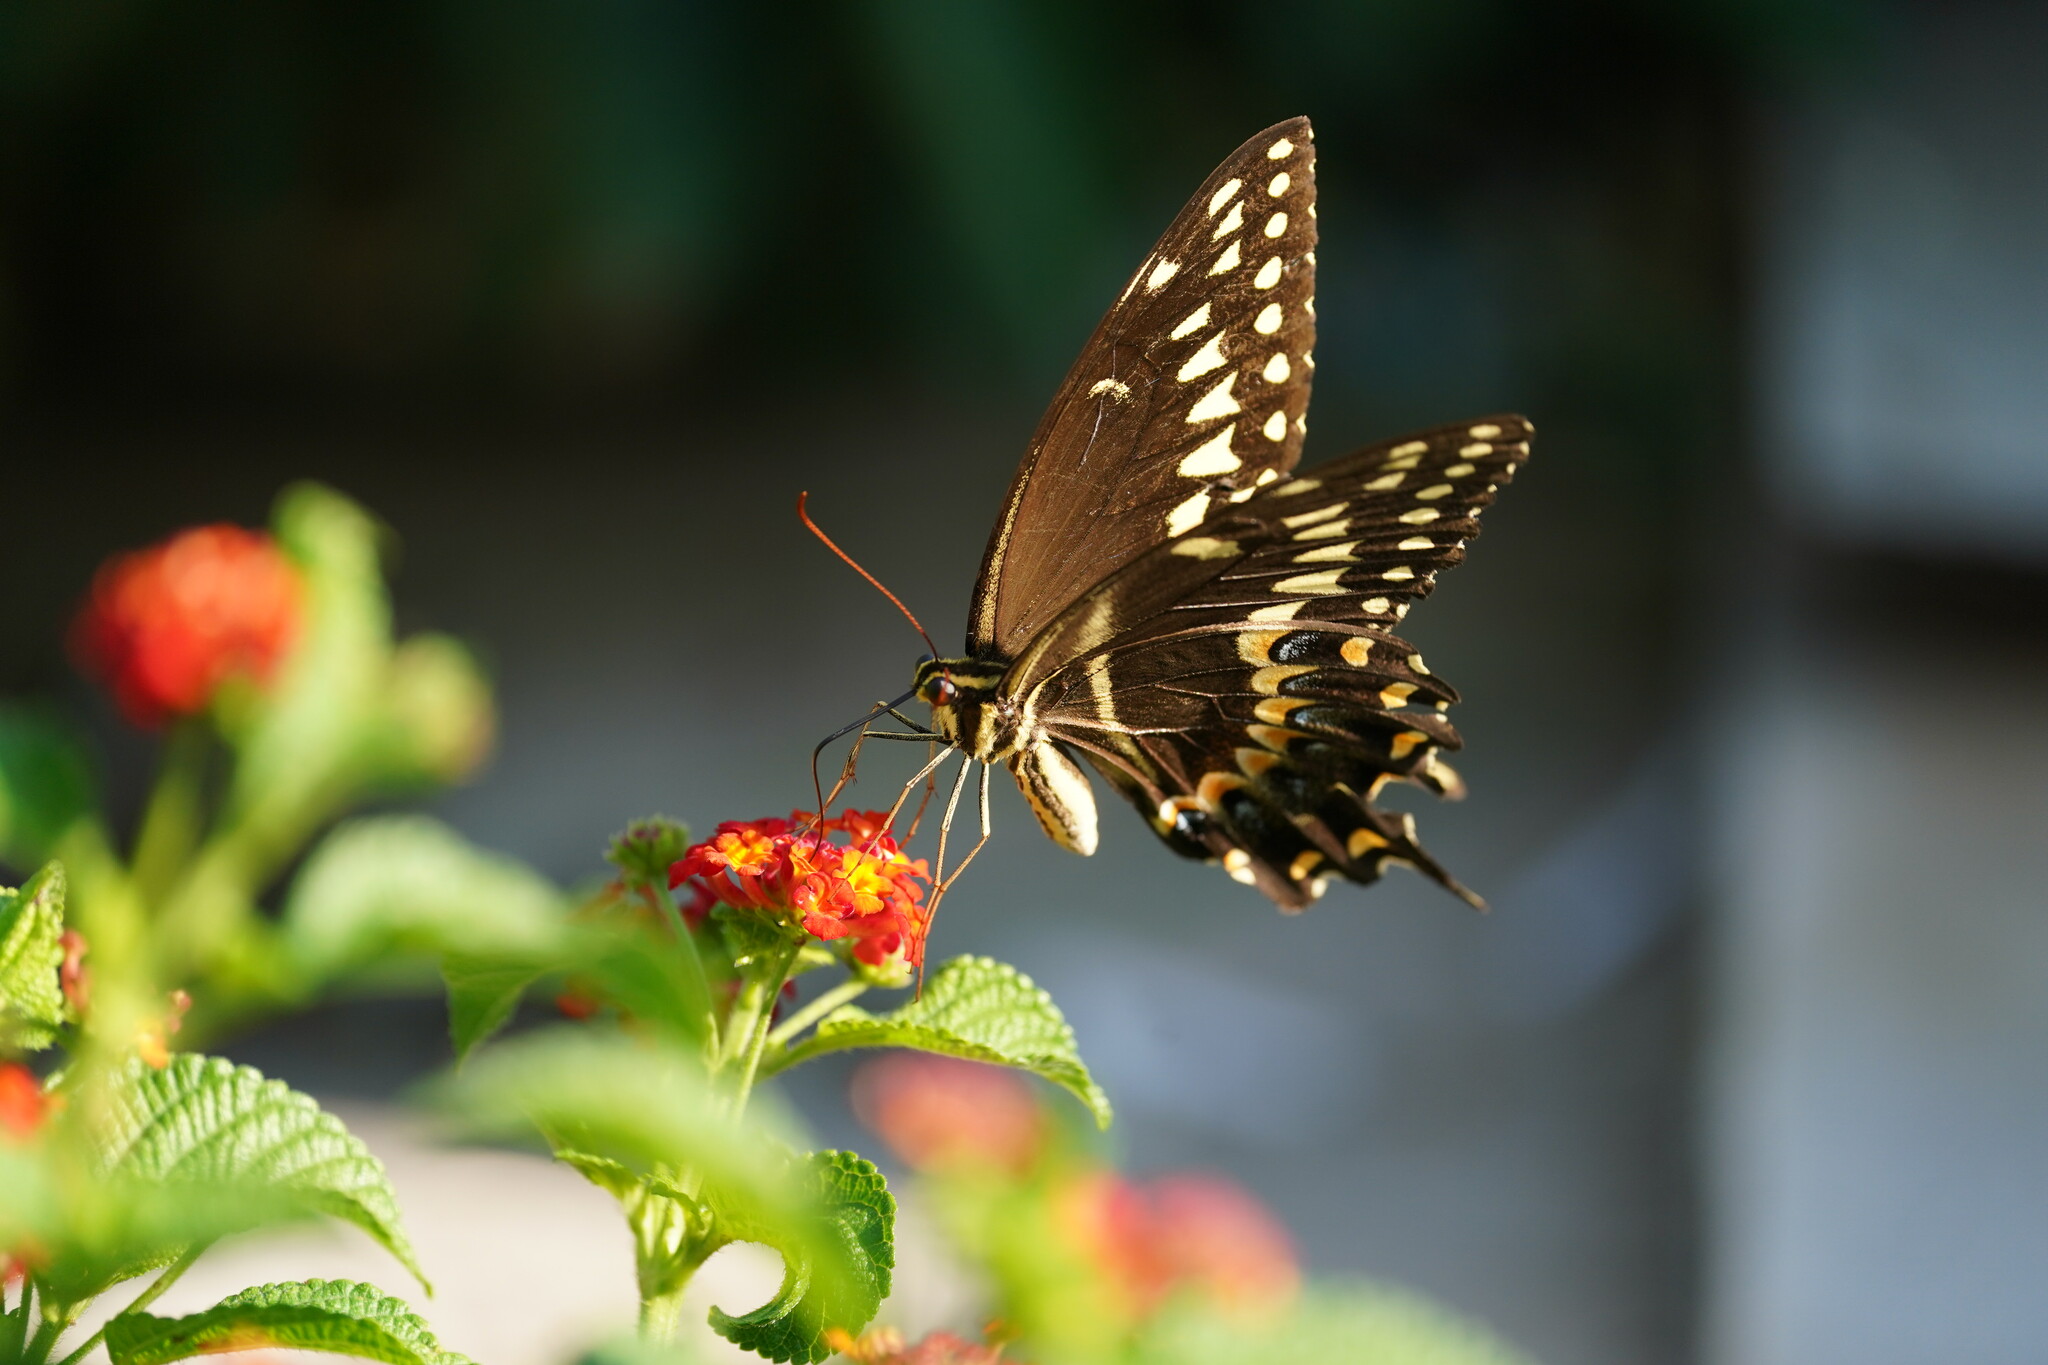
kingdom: Animalia
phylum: Arthropoda
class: Insecta
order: Lepidoptera
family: Papilionidae
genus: Papilio
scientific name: Papilio palamedes
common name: Palamedes swallowtail
